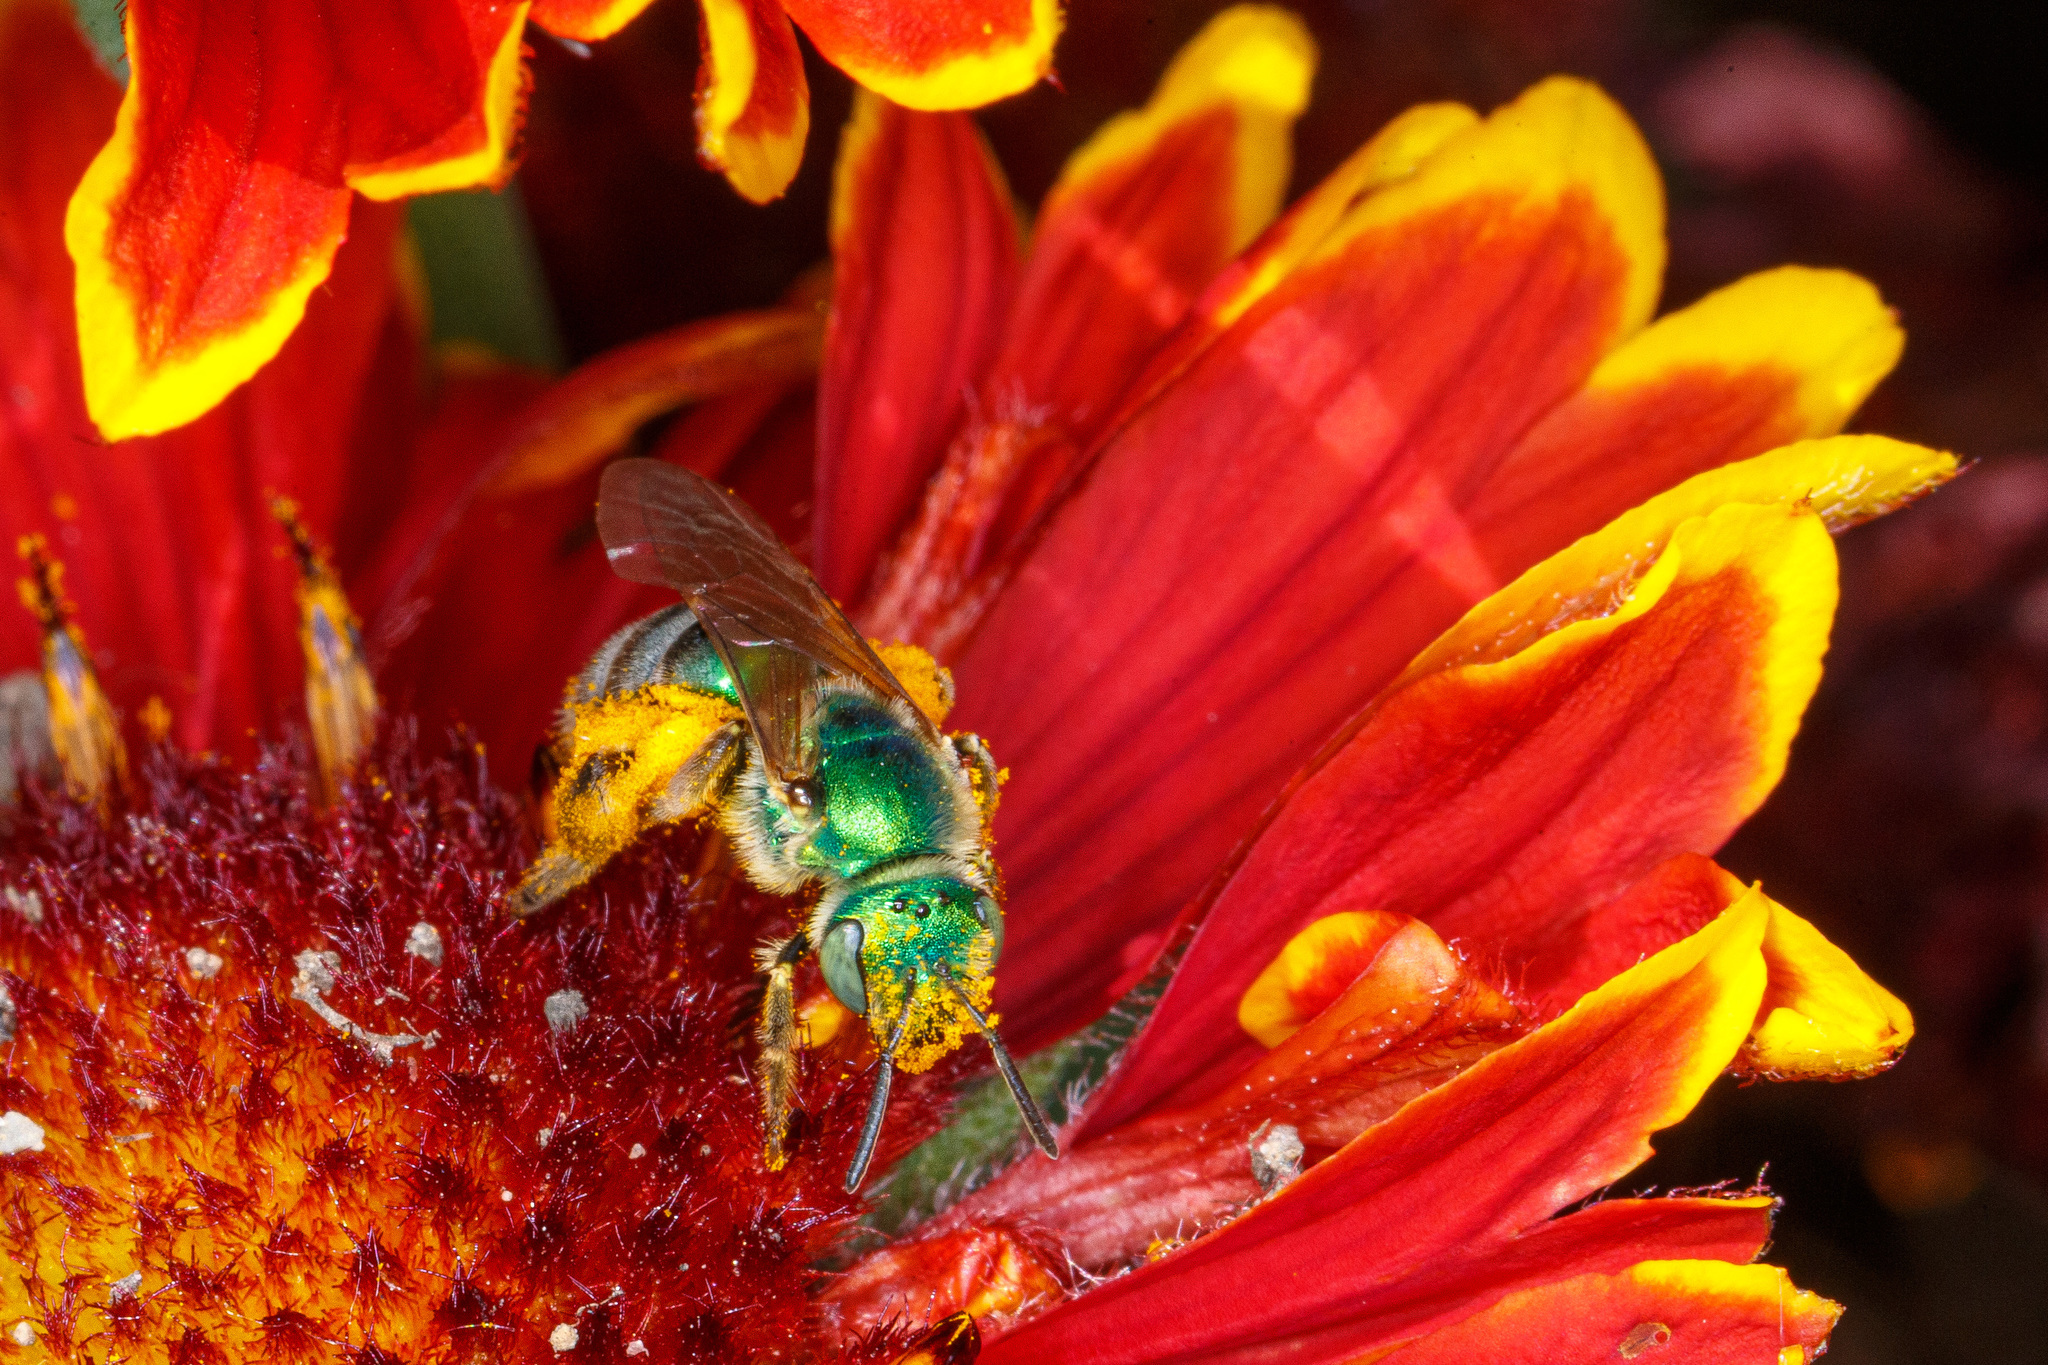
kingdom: Animalia
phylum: Arthropoda
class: Insecta
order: Hymenoptera
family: Halictidae
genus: Agapostemon
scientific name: Agapostemon texanus
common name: Texas striped sweat bee
